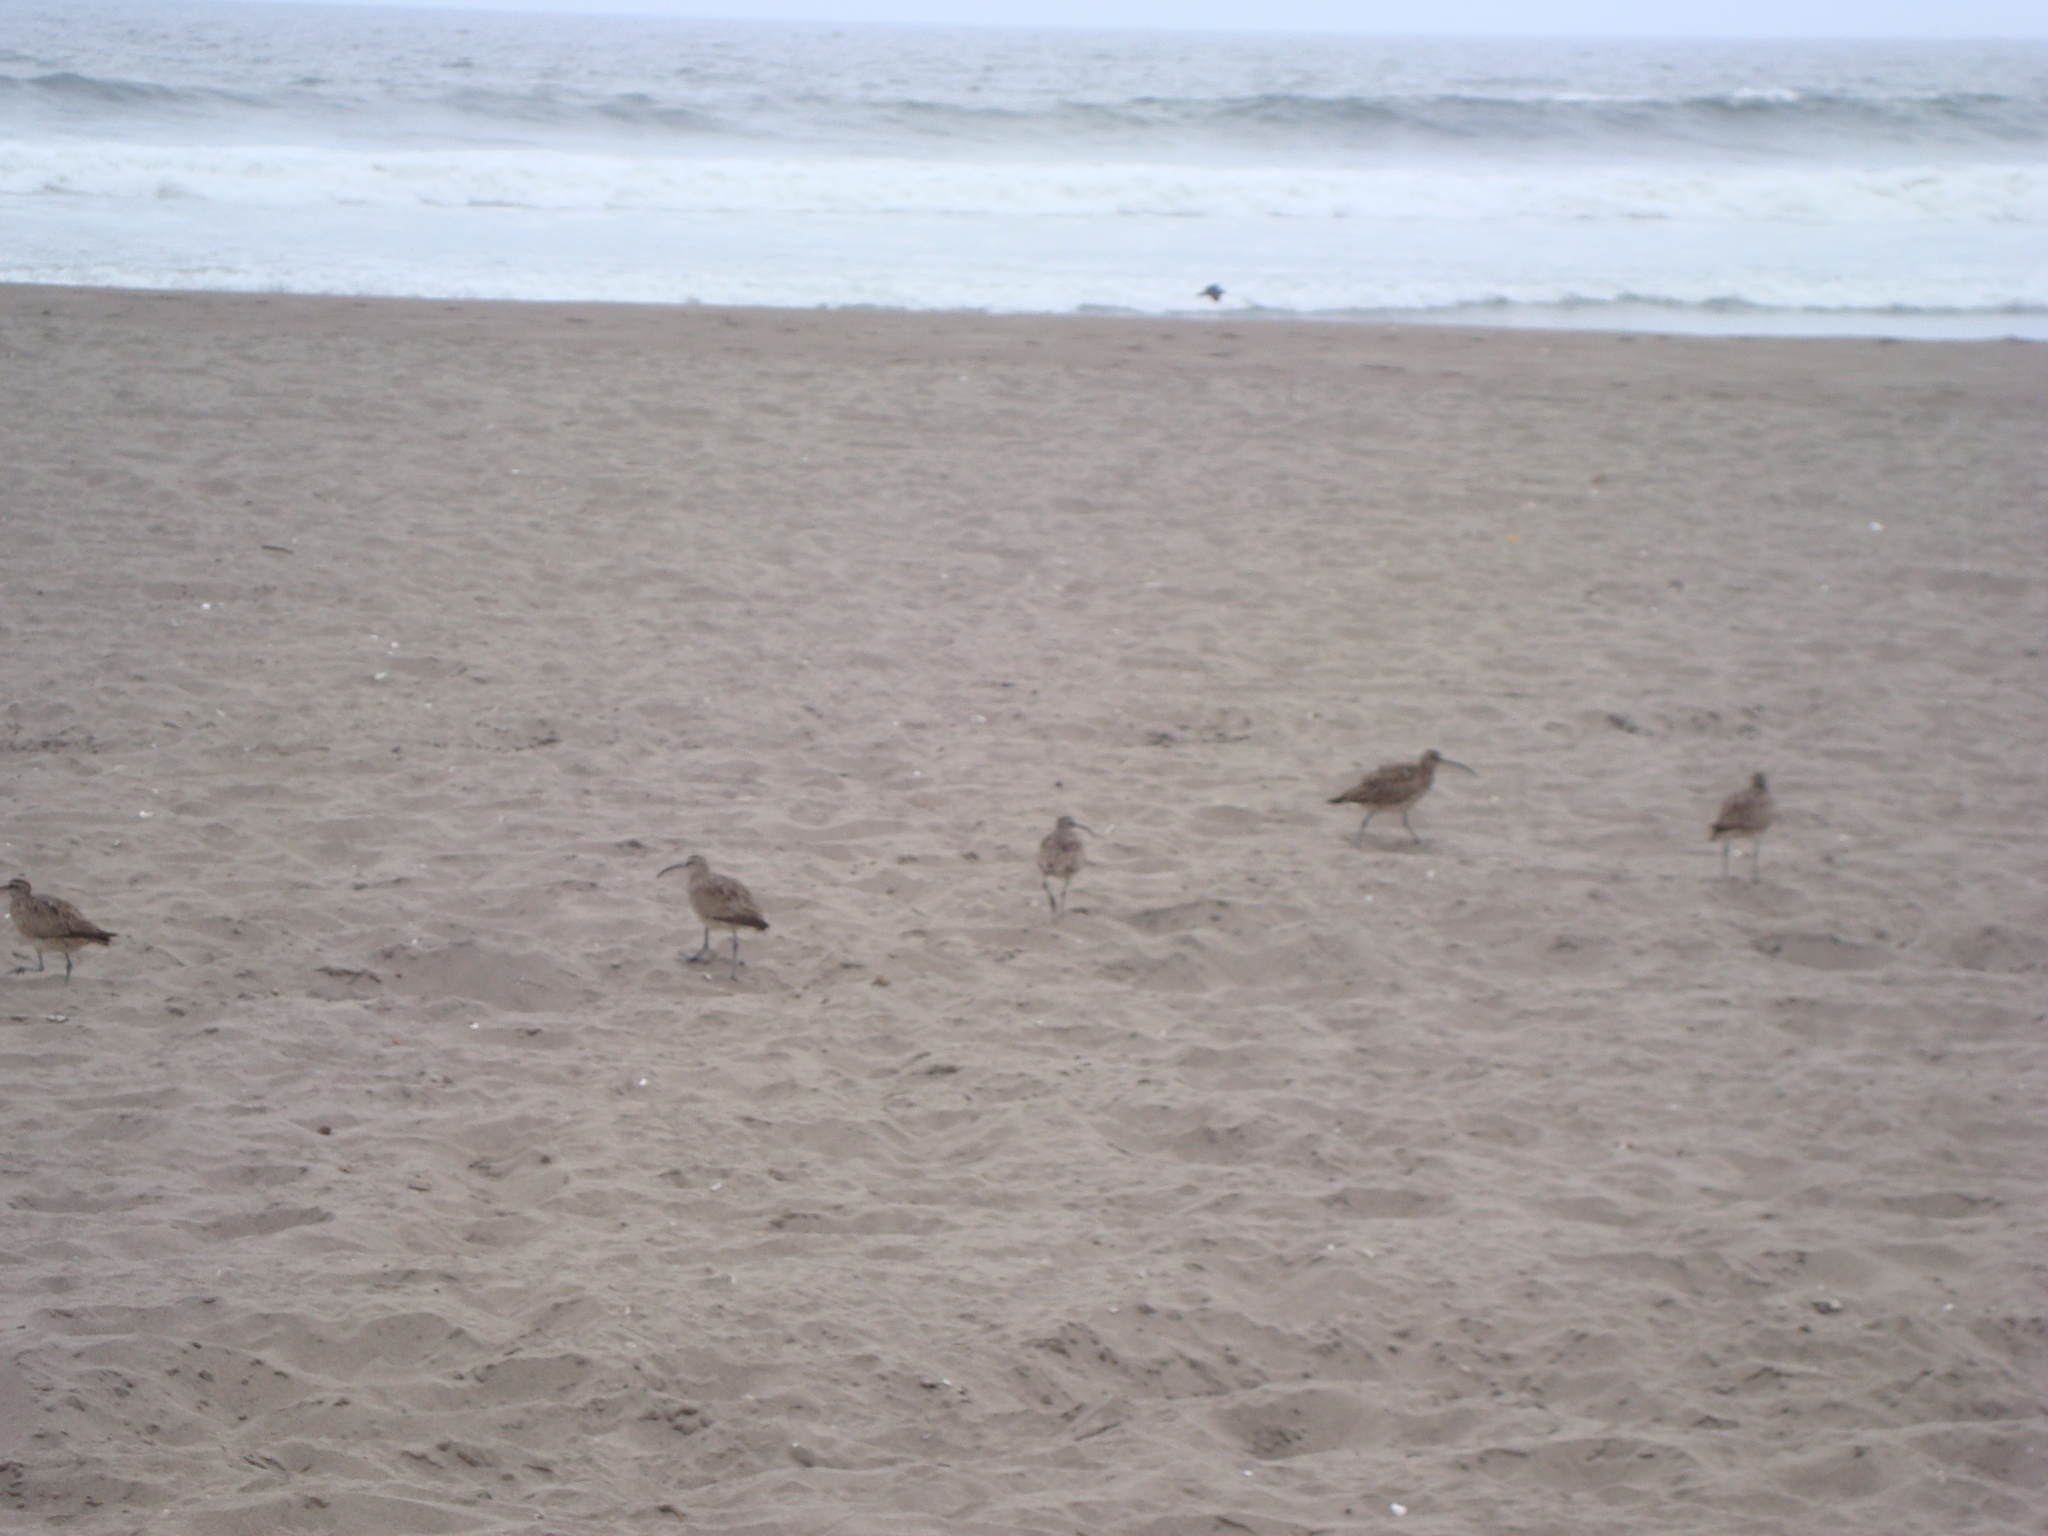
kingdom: Animalia
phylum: Chordata
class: Aves
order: Charadriiformes
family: Scolopacidae
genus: Numenius
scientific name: Numenius phaeopus
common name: Whimbrel
